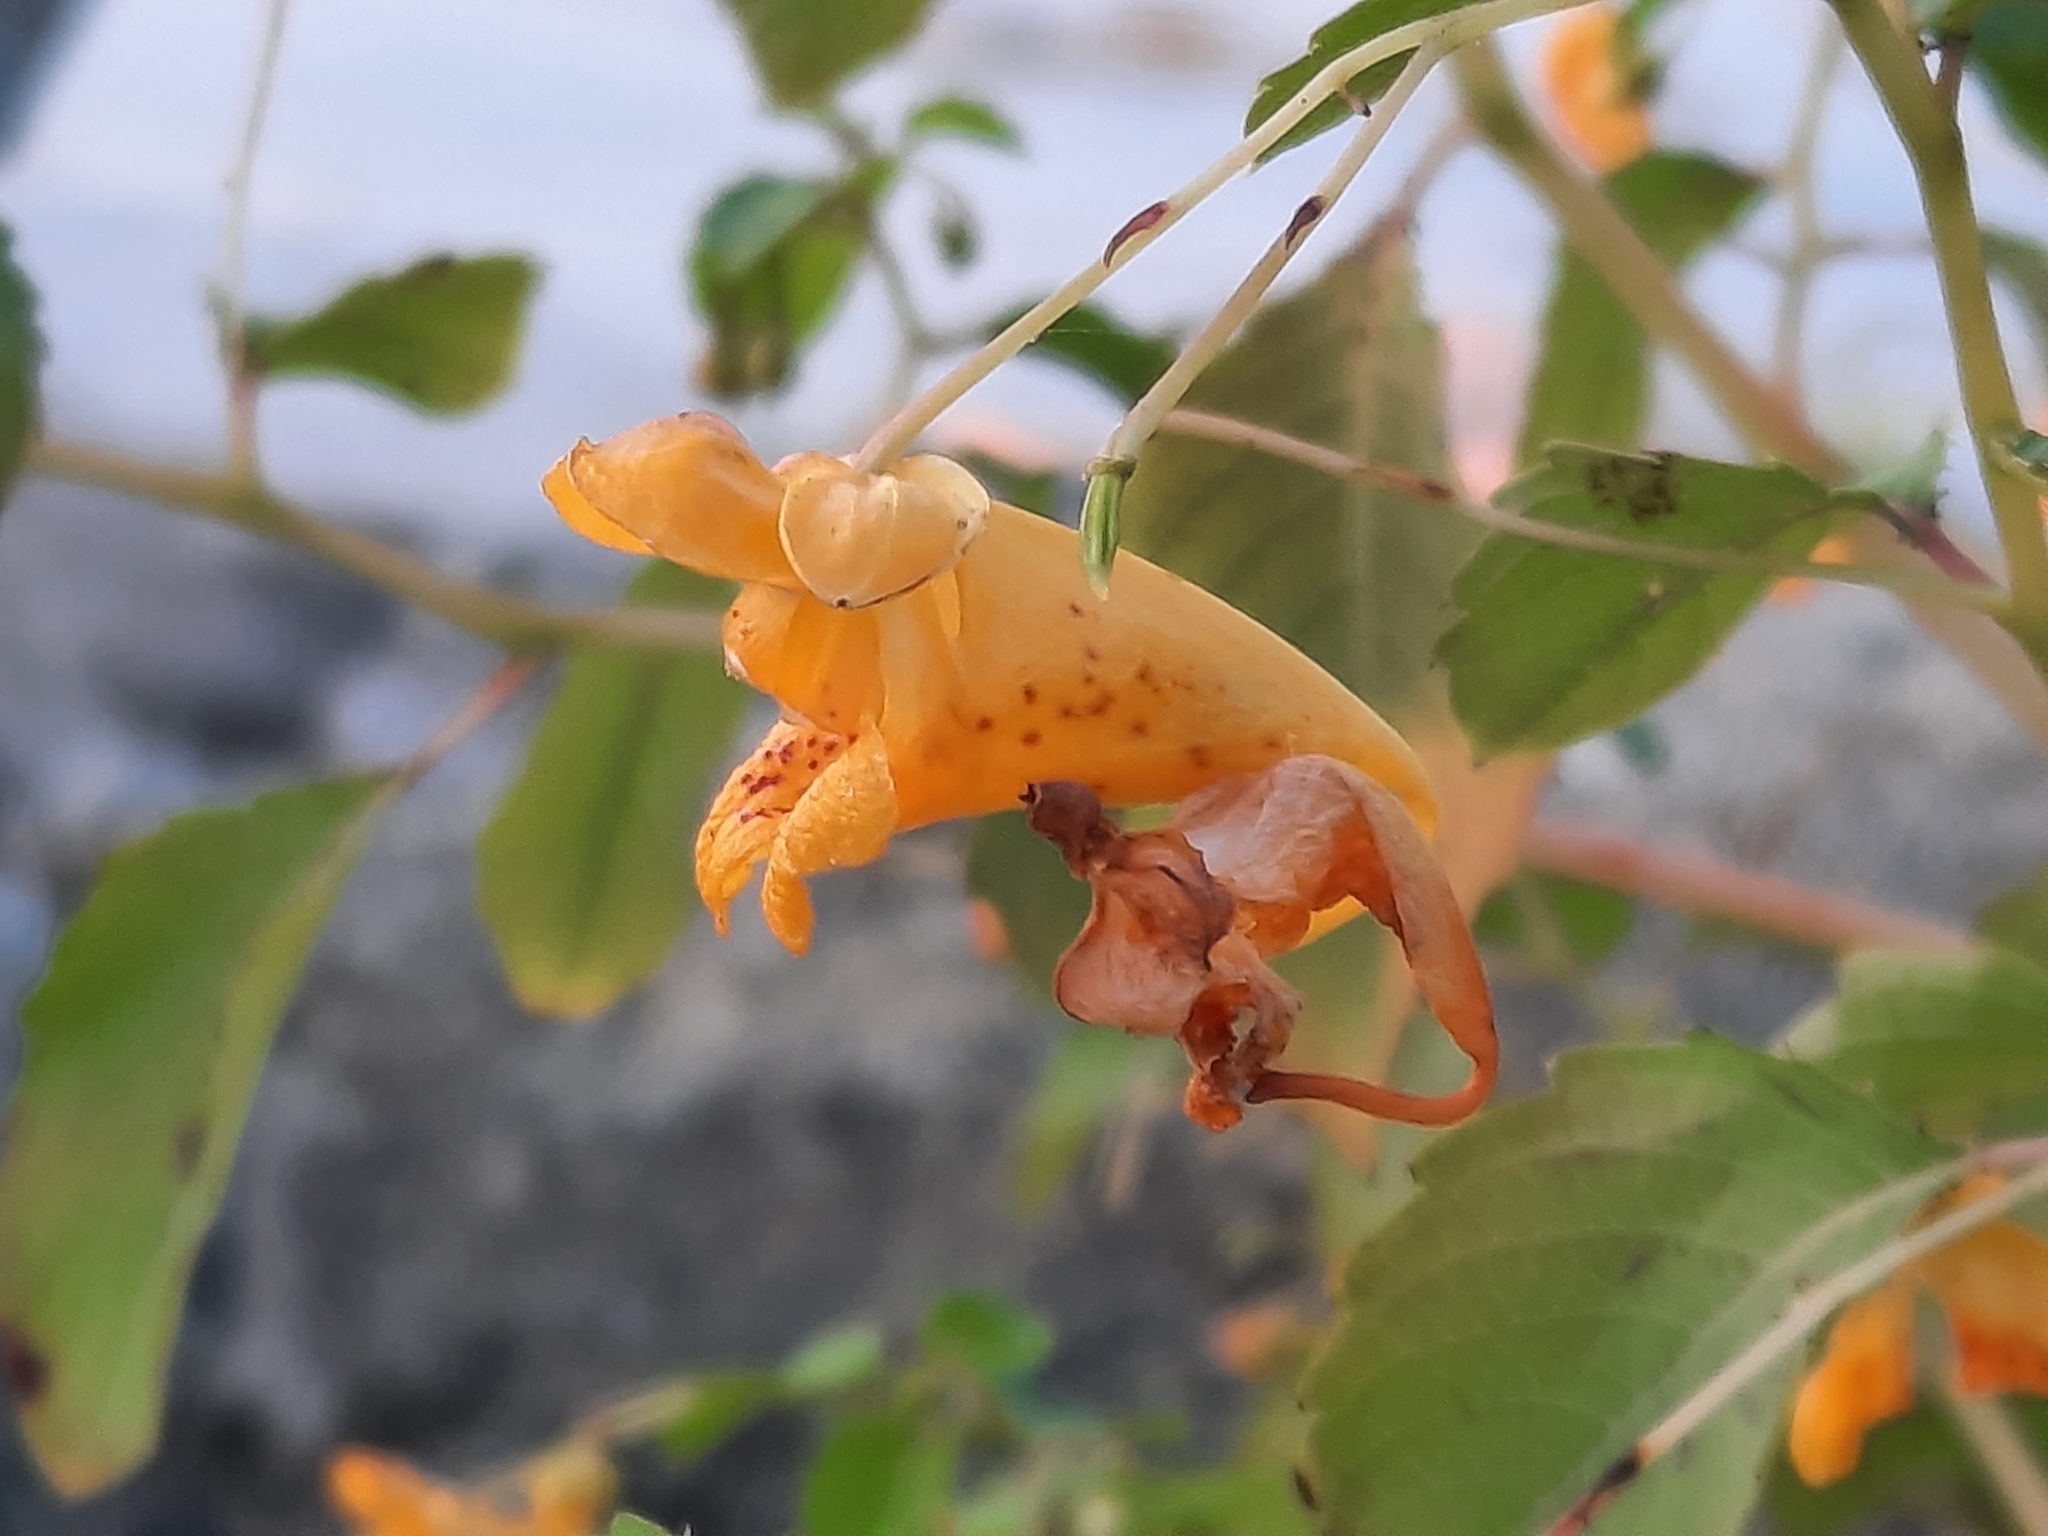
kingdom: Plantae
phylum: Tracheophyta
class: Magnoliopsida
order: Ericales
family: Balsaminaceae
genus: Impatiens
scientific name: Impatiens capensis
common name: Orange balsam
